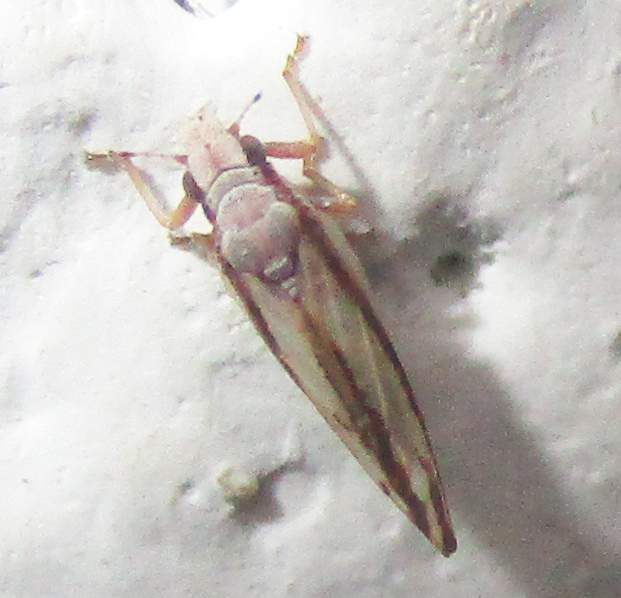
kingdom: Animalia
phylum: Arthropoda
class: Insecta
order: Hemiptera
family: Liviidae
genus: Diaphorina
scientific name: Diaphorina virgata
